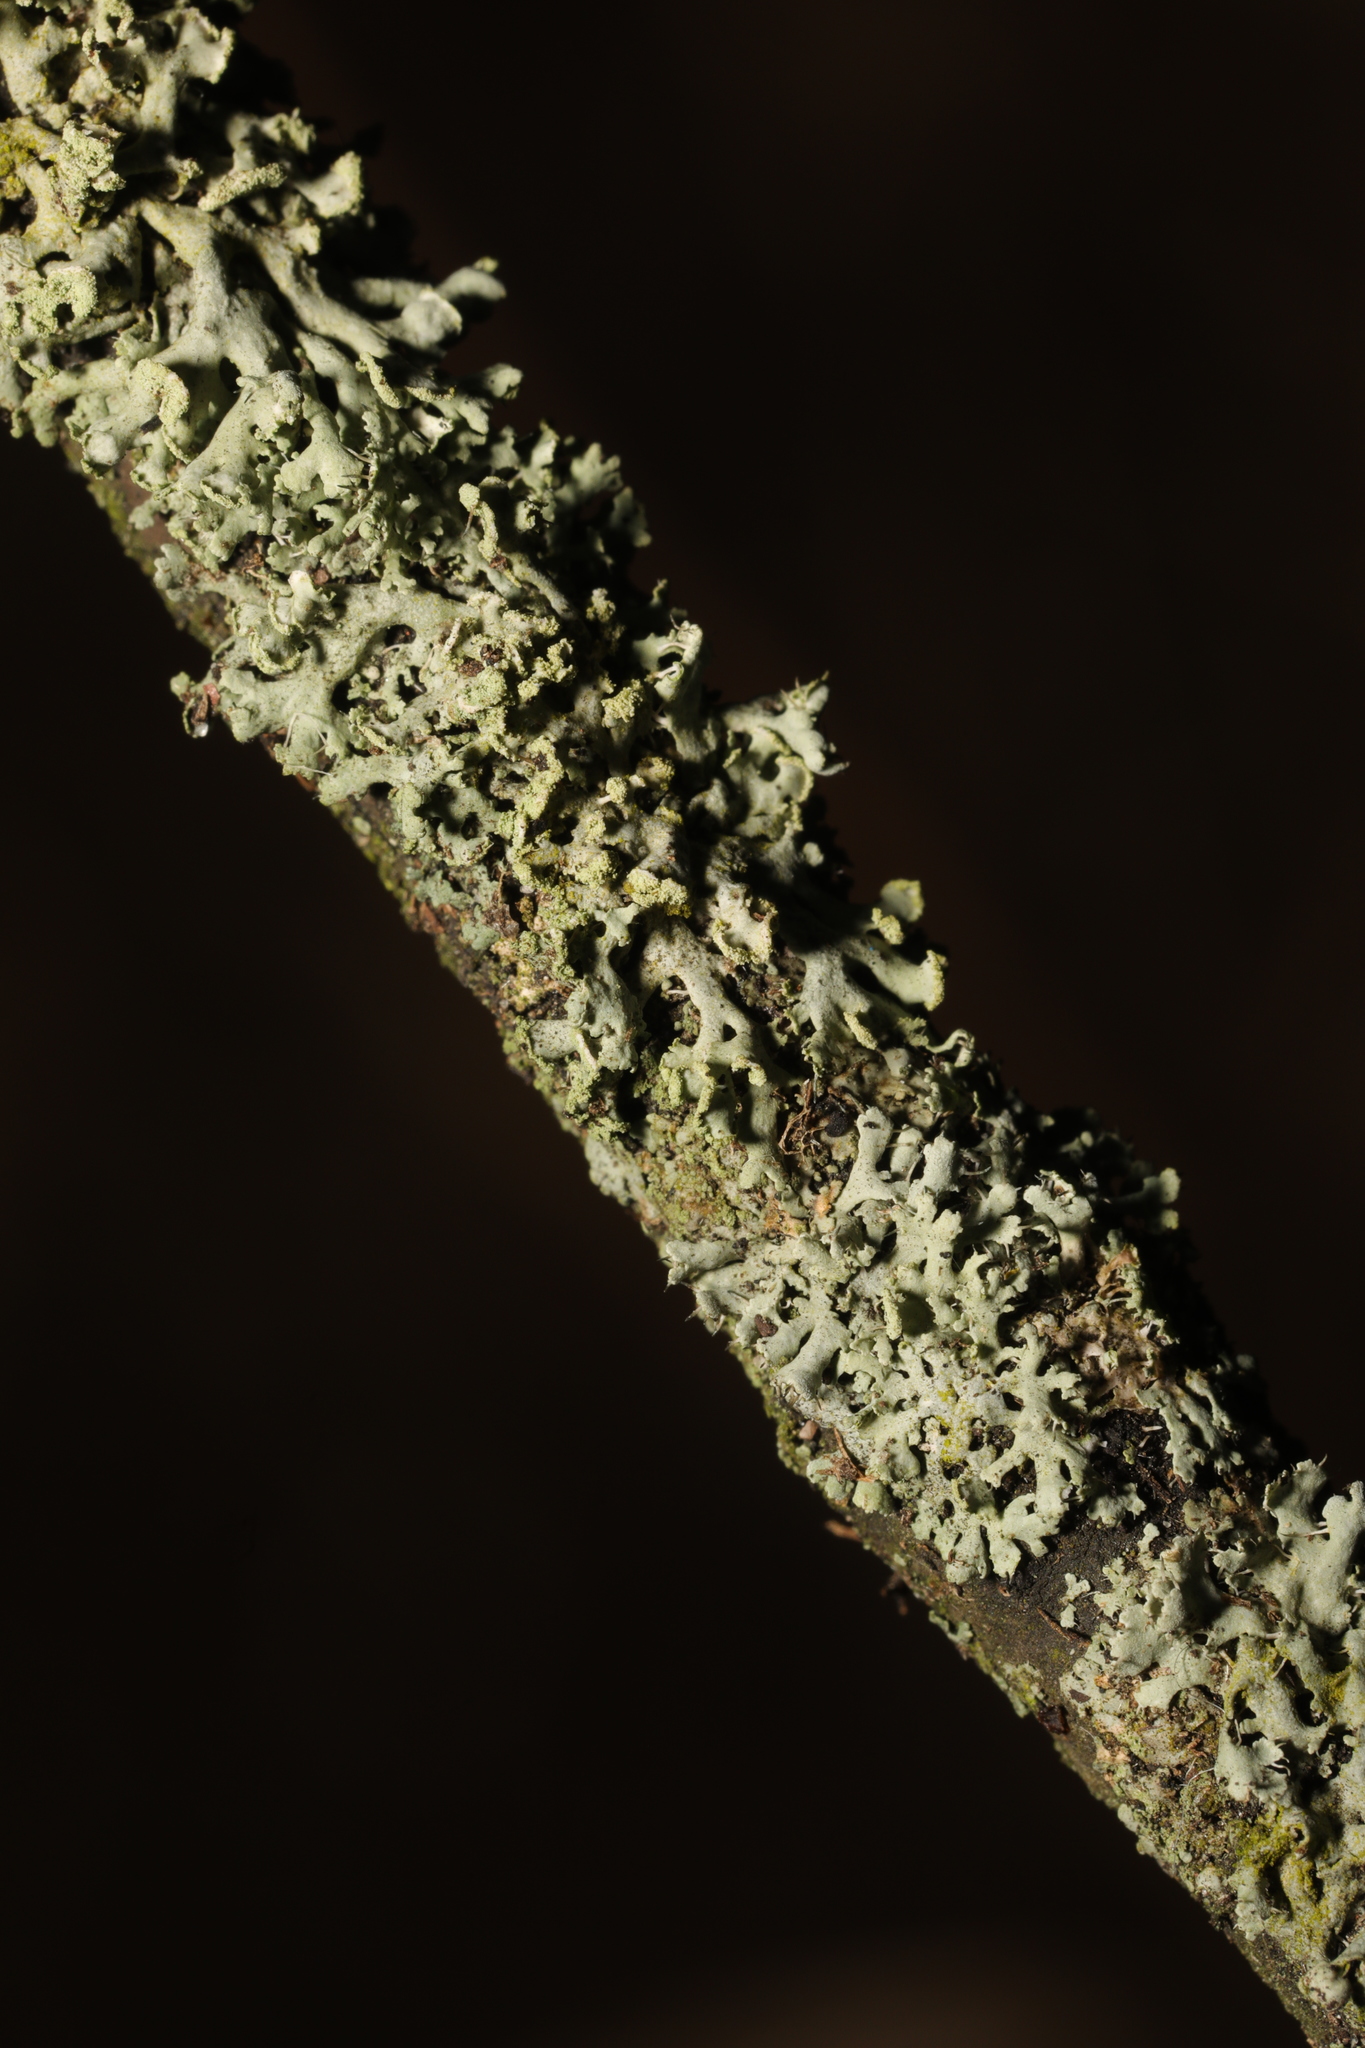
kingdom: Fungi
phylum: Ascomycota
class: Lecanoromycetes
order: Caliciales
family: Physciaceae
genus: Physcia
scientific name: Physcia tenella
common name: Fringed rosette lichen
